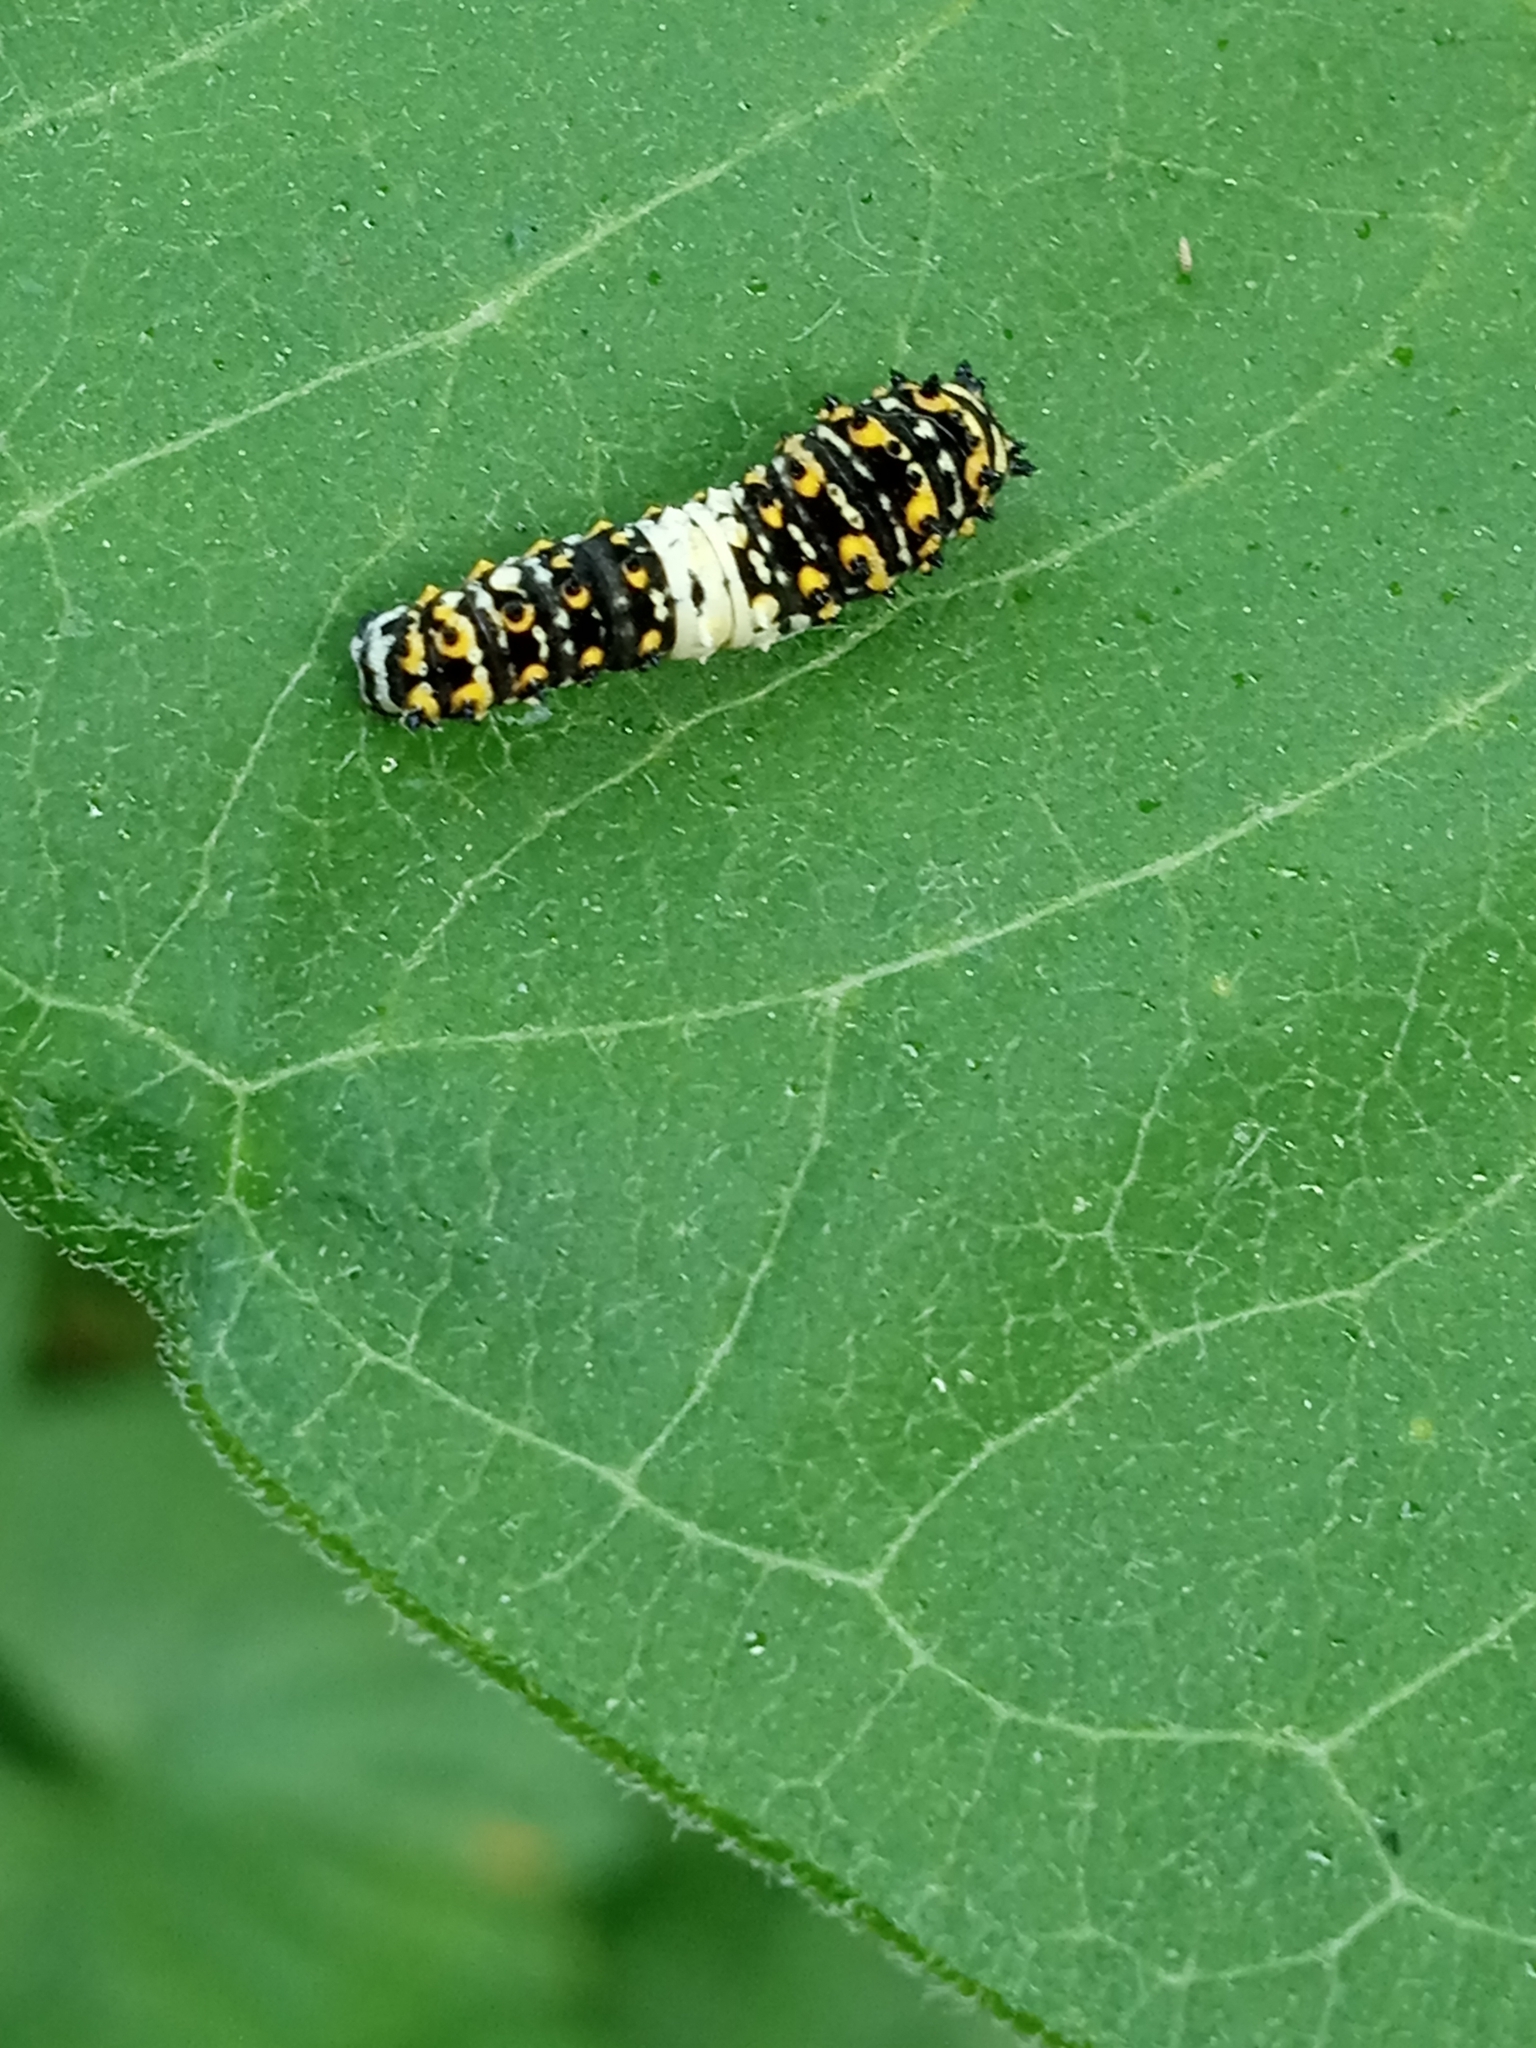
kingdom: Animalia
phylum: Arthropoda
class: Insecta
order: Lepidoptera
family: Papilionidae
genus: Papilio
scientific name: Papilio polyxenes
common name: Black swallowtail
